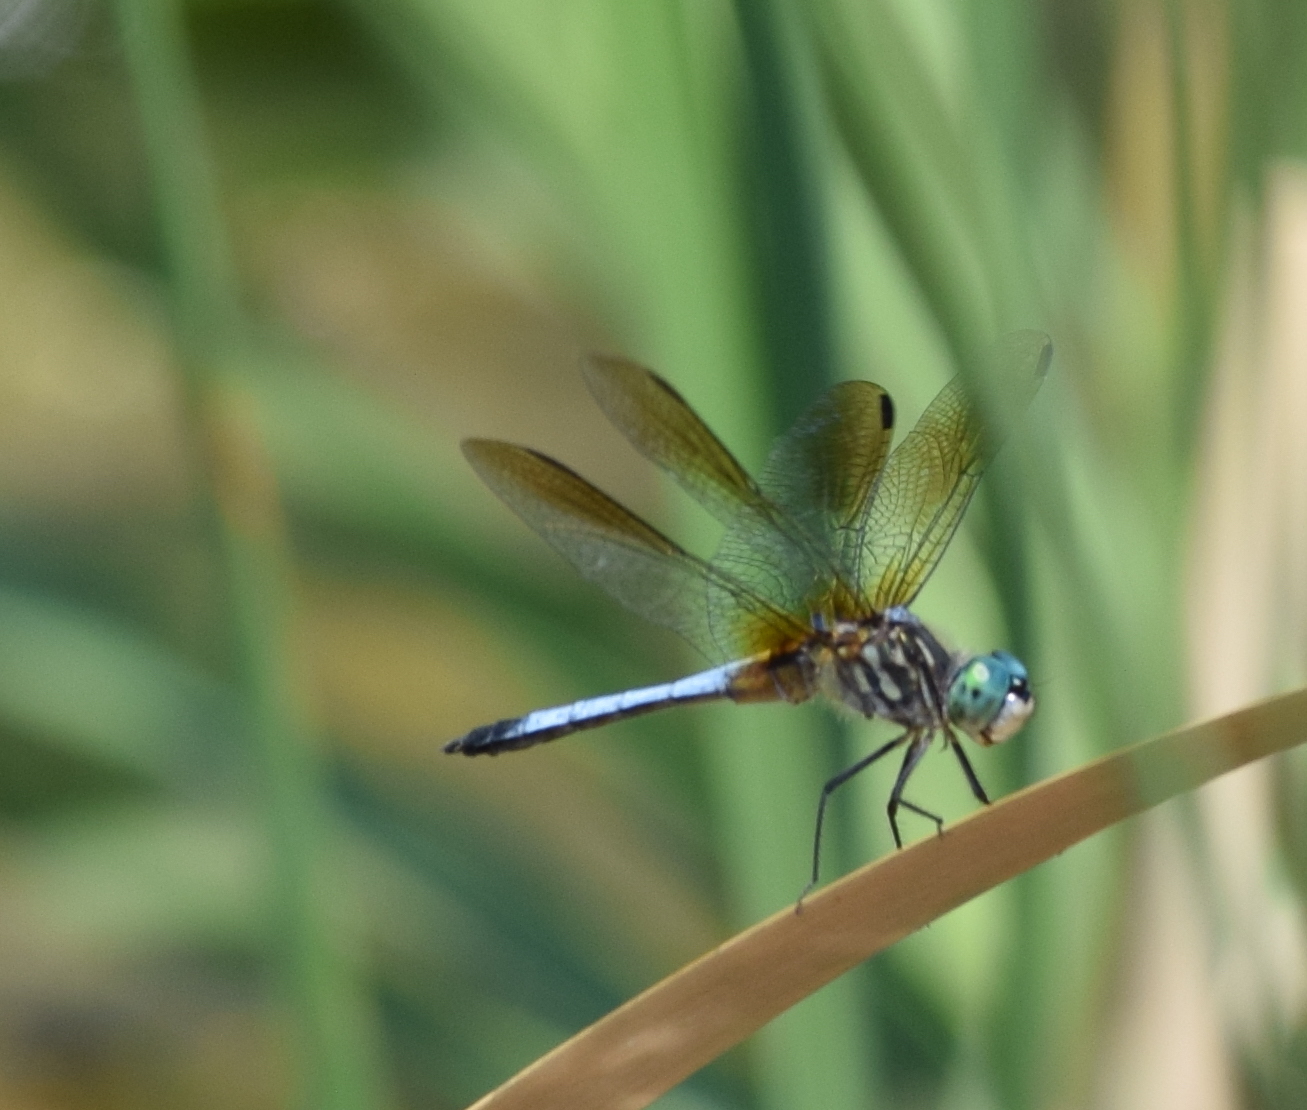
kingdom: Animalia
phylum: Arthropoda
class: Insecta
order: Odonata
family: Libellulidae
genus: Pachydiplax
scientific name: Pachydiplax longipennis
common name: Blue dasher
